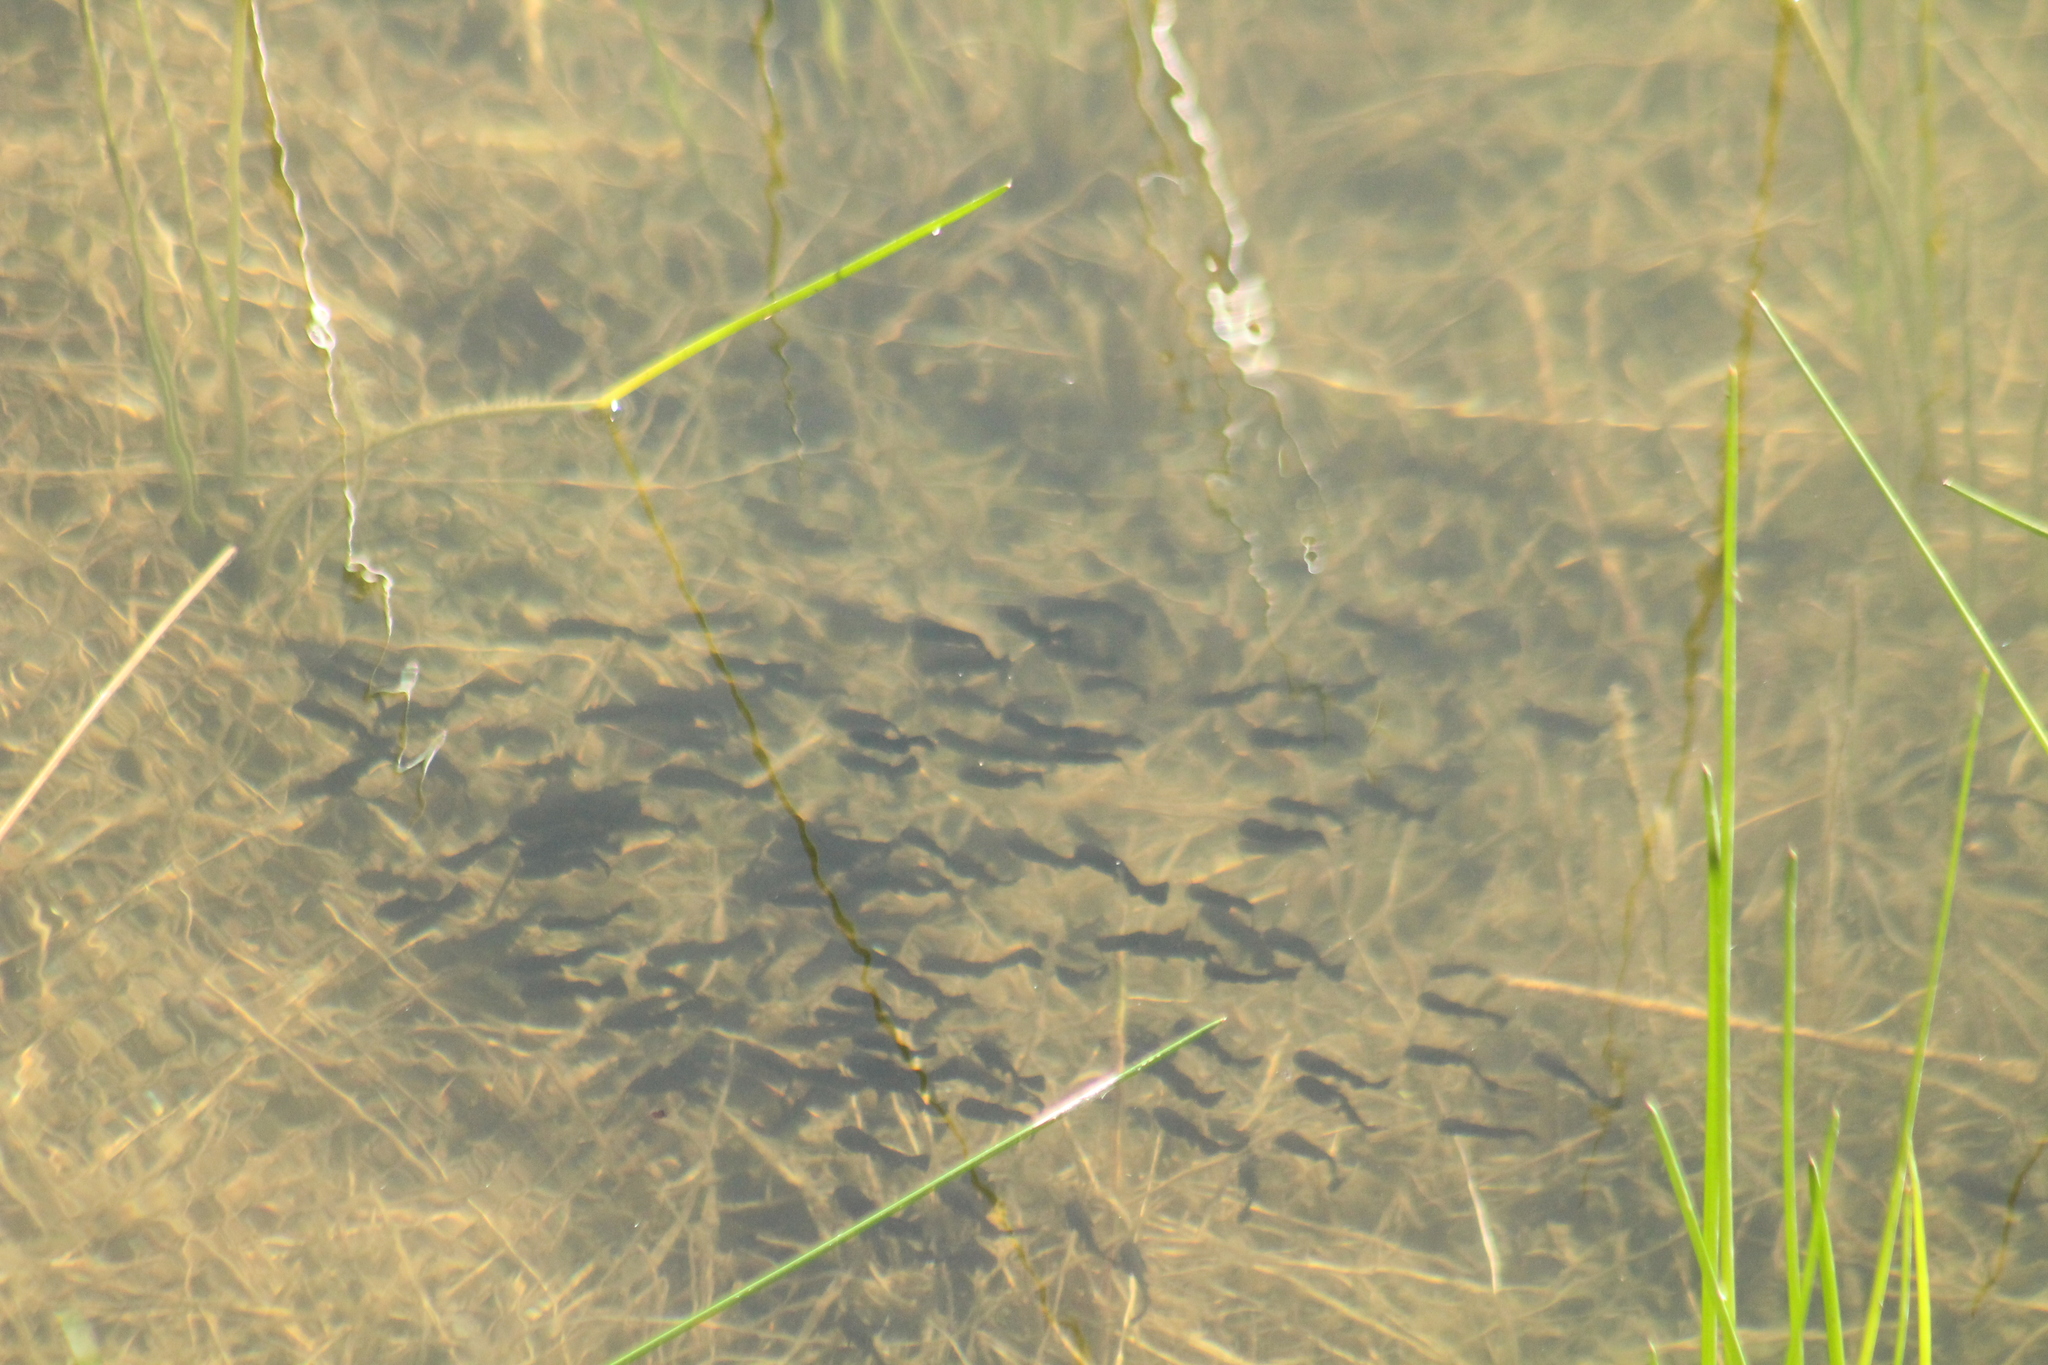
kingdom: Animalia
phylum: Chordata
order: Siluriformes
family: Ictaluridae
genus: Ameiurus
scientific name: Ameiurus melas
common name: Black bullhead
